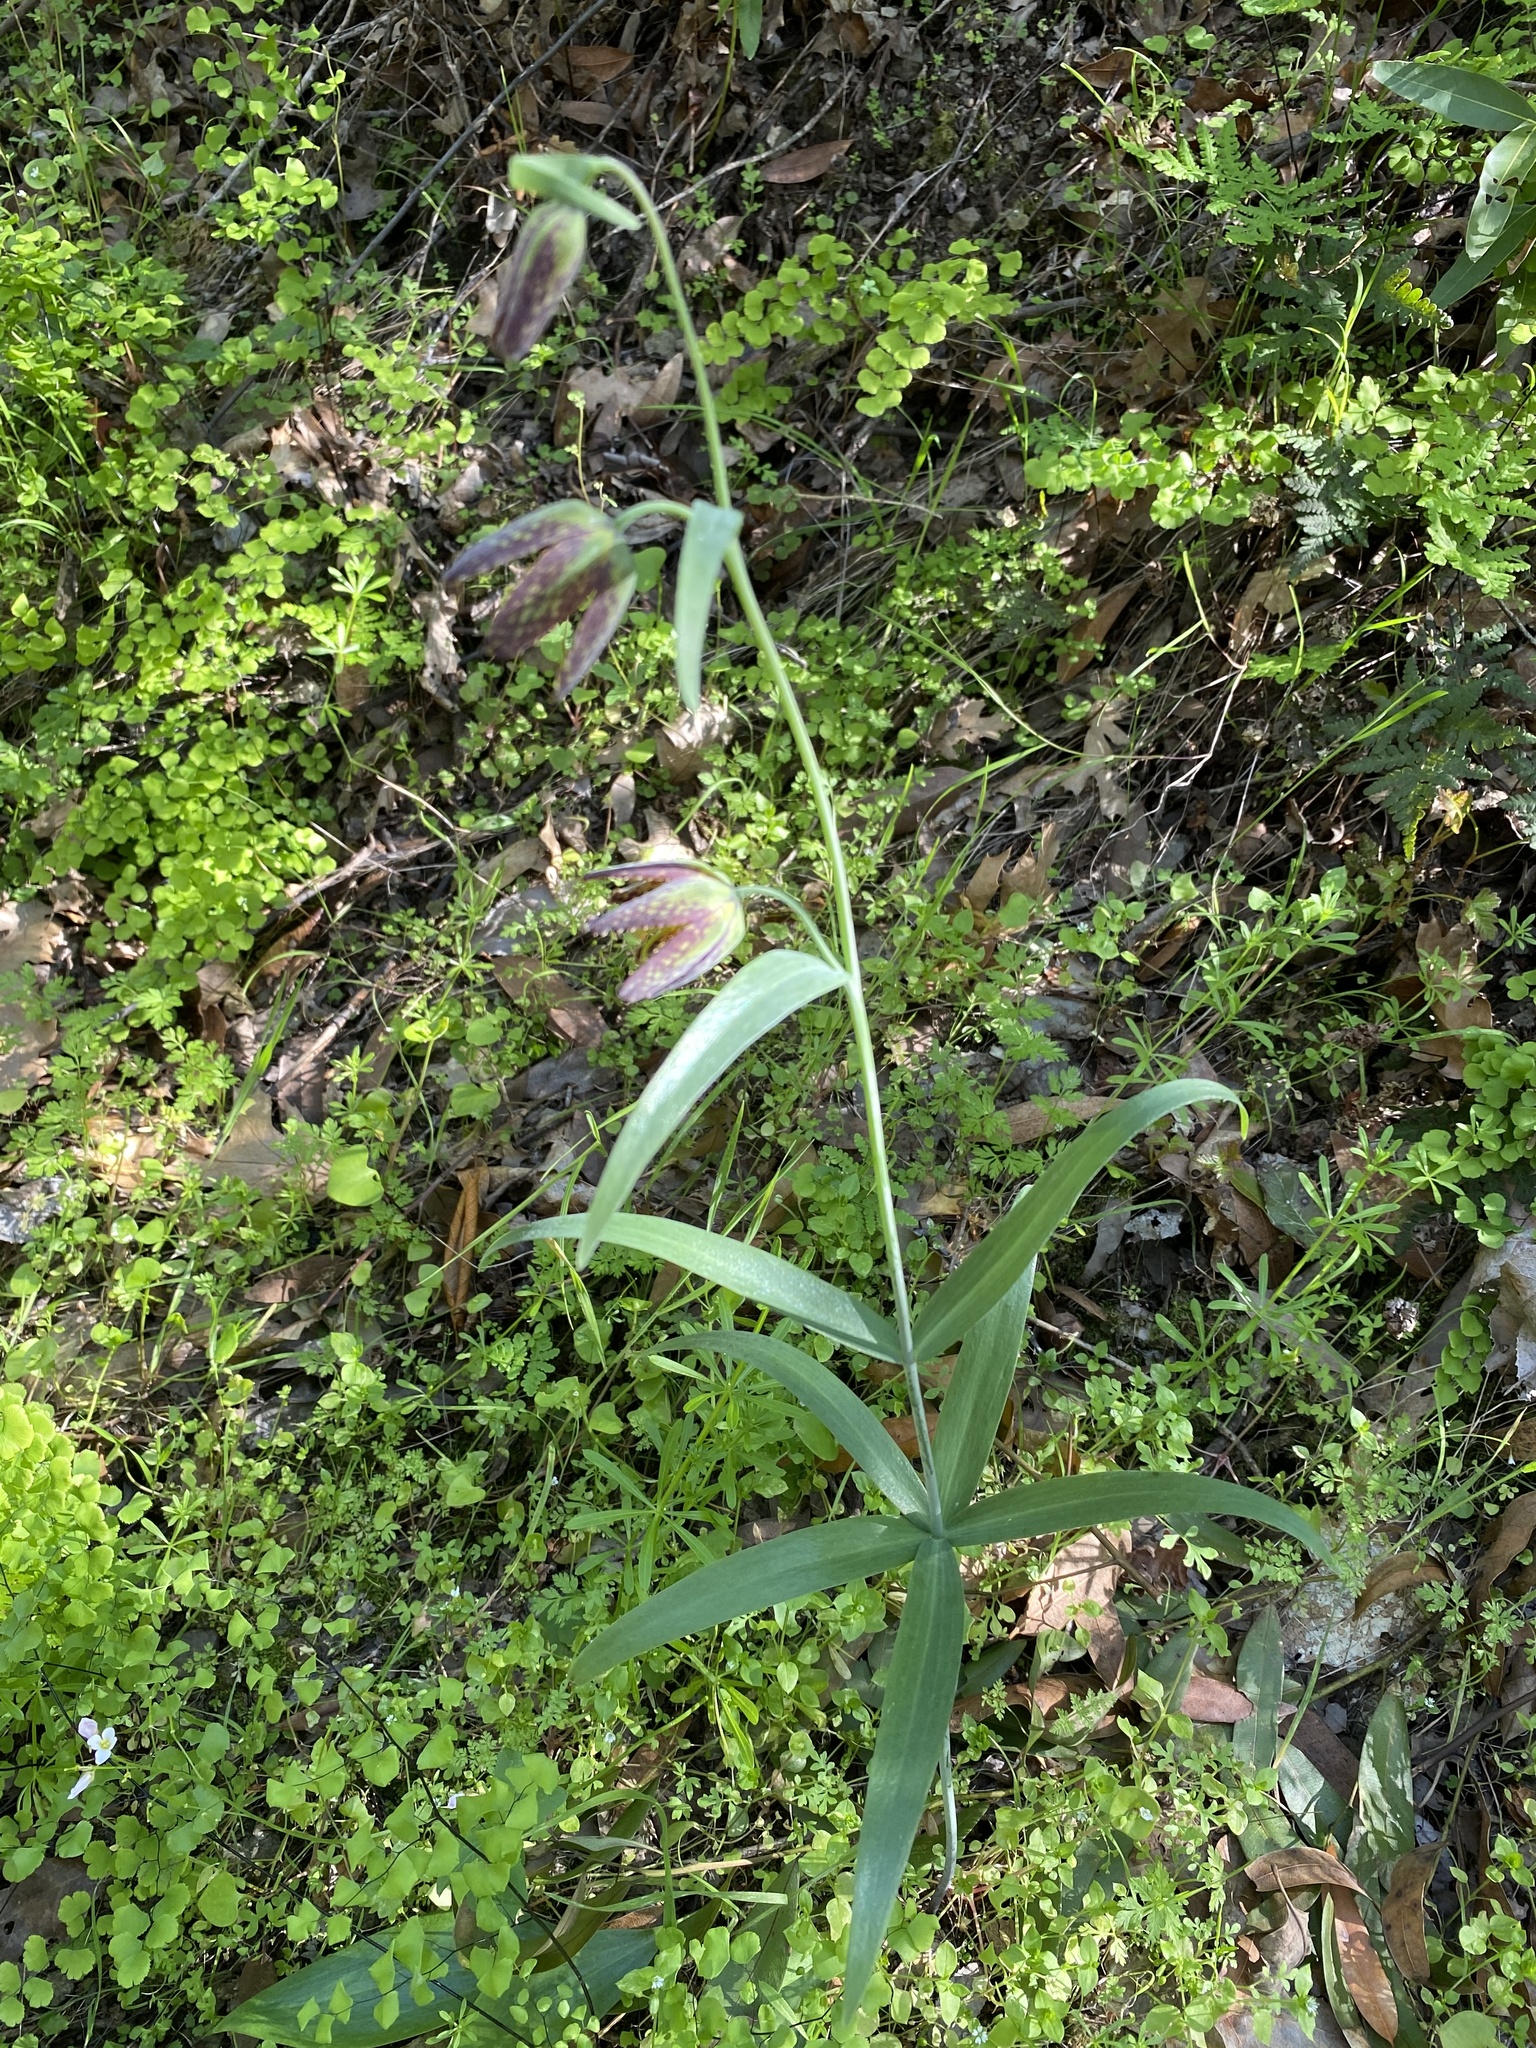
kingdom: Plantae
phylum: Tracheophyta
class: Liliopsida
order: Liliales
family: Liliaceae
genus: Fritillaria
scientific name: Fritillaria affinis
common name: Ojai fritillary
